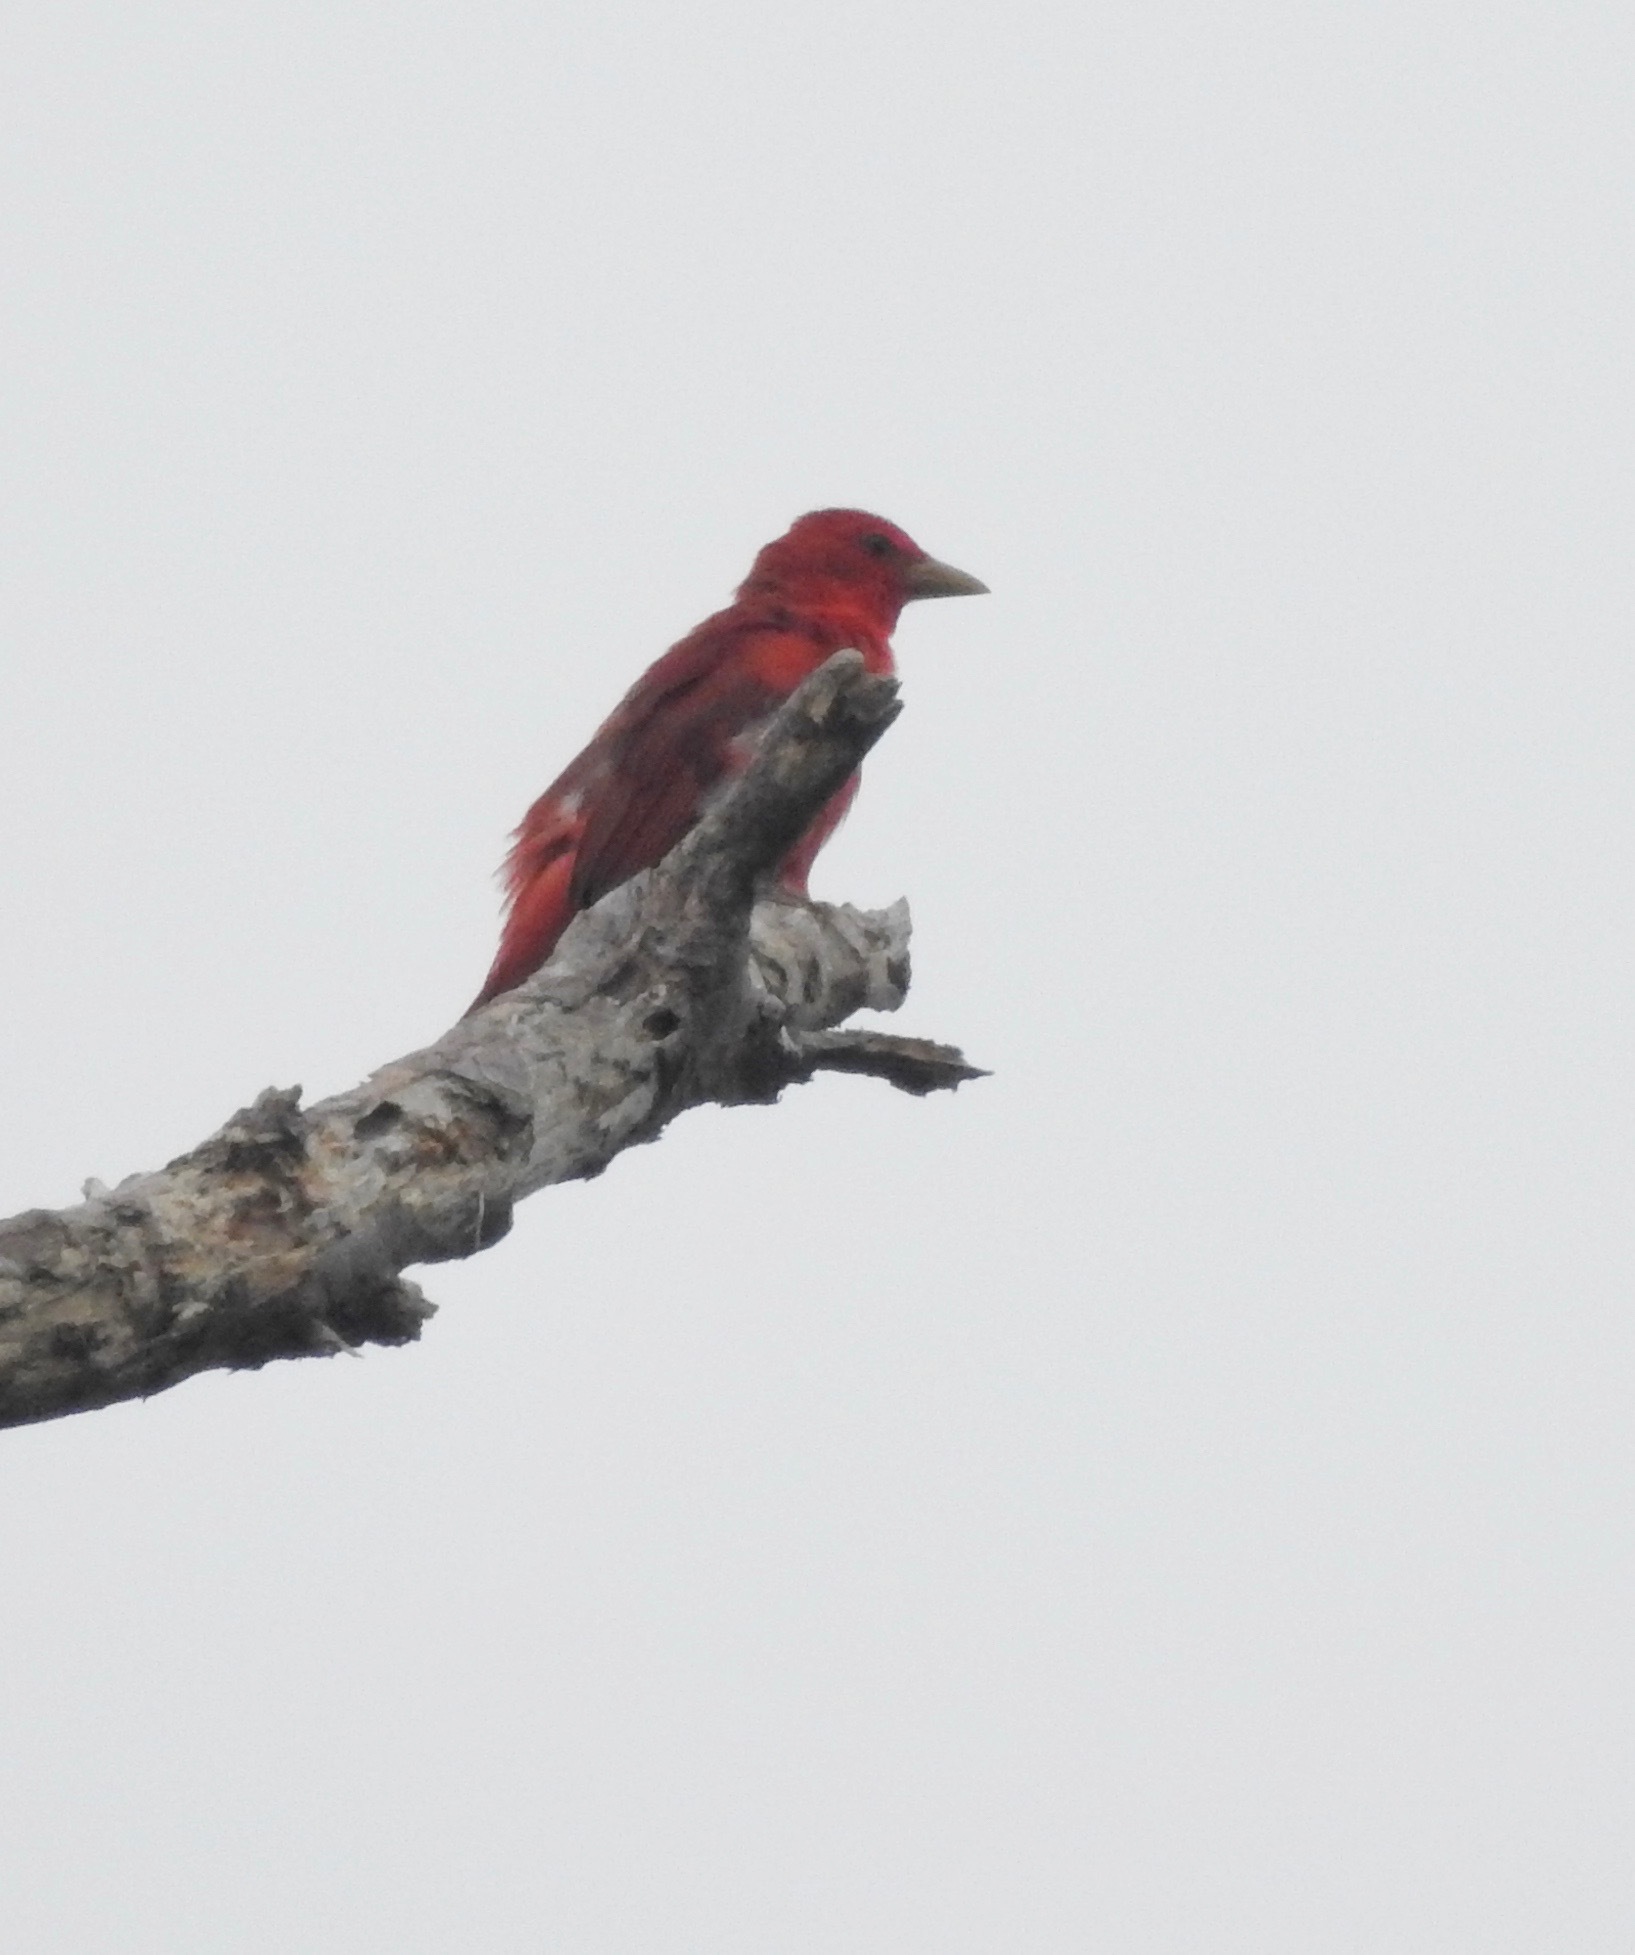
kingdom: Animalia
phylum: Chordata
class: Aves
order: Passeriformes
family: Cardinalidae
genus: Piranga
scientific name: Piranga rubra
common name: Summer tanager
